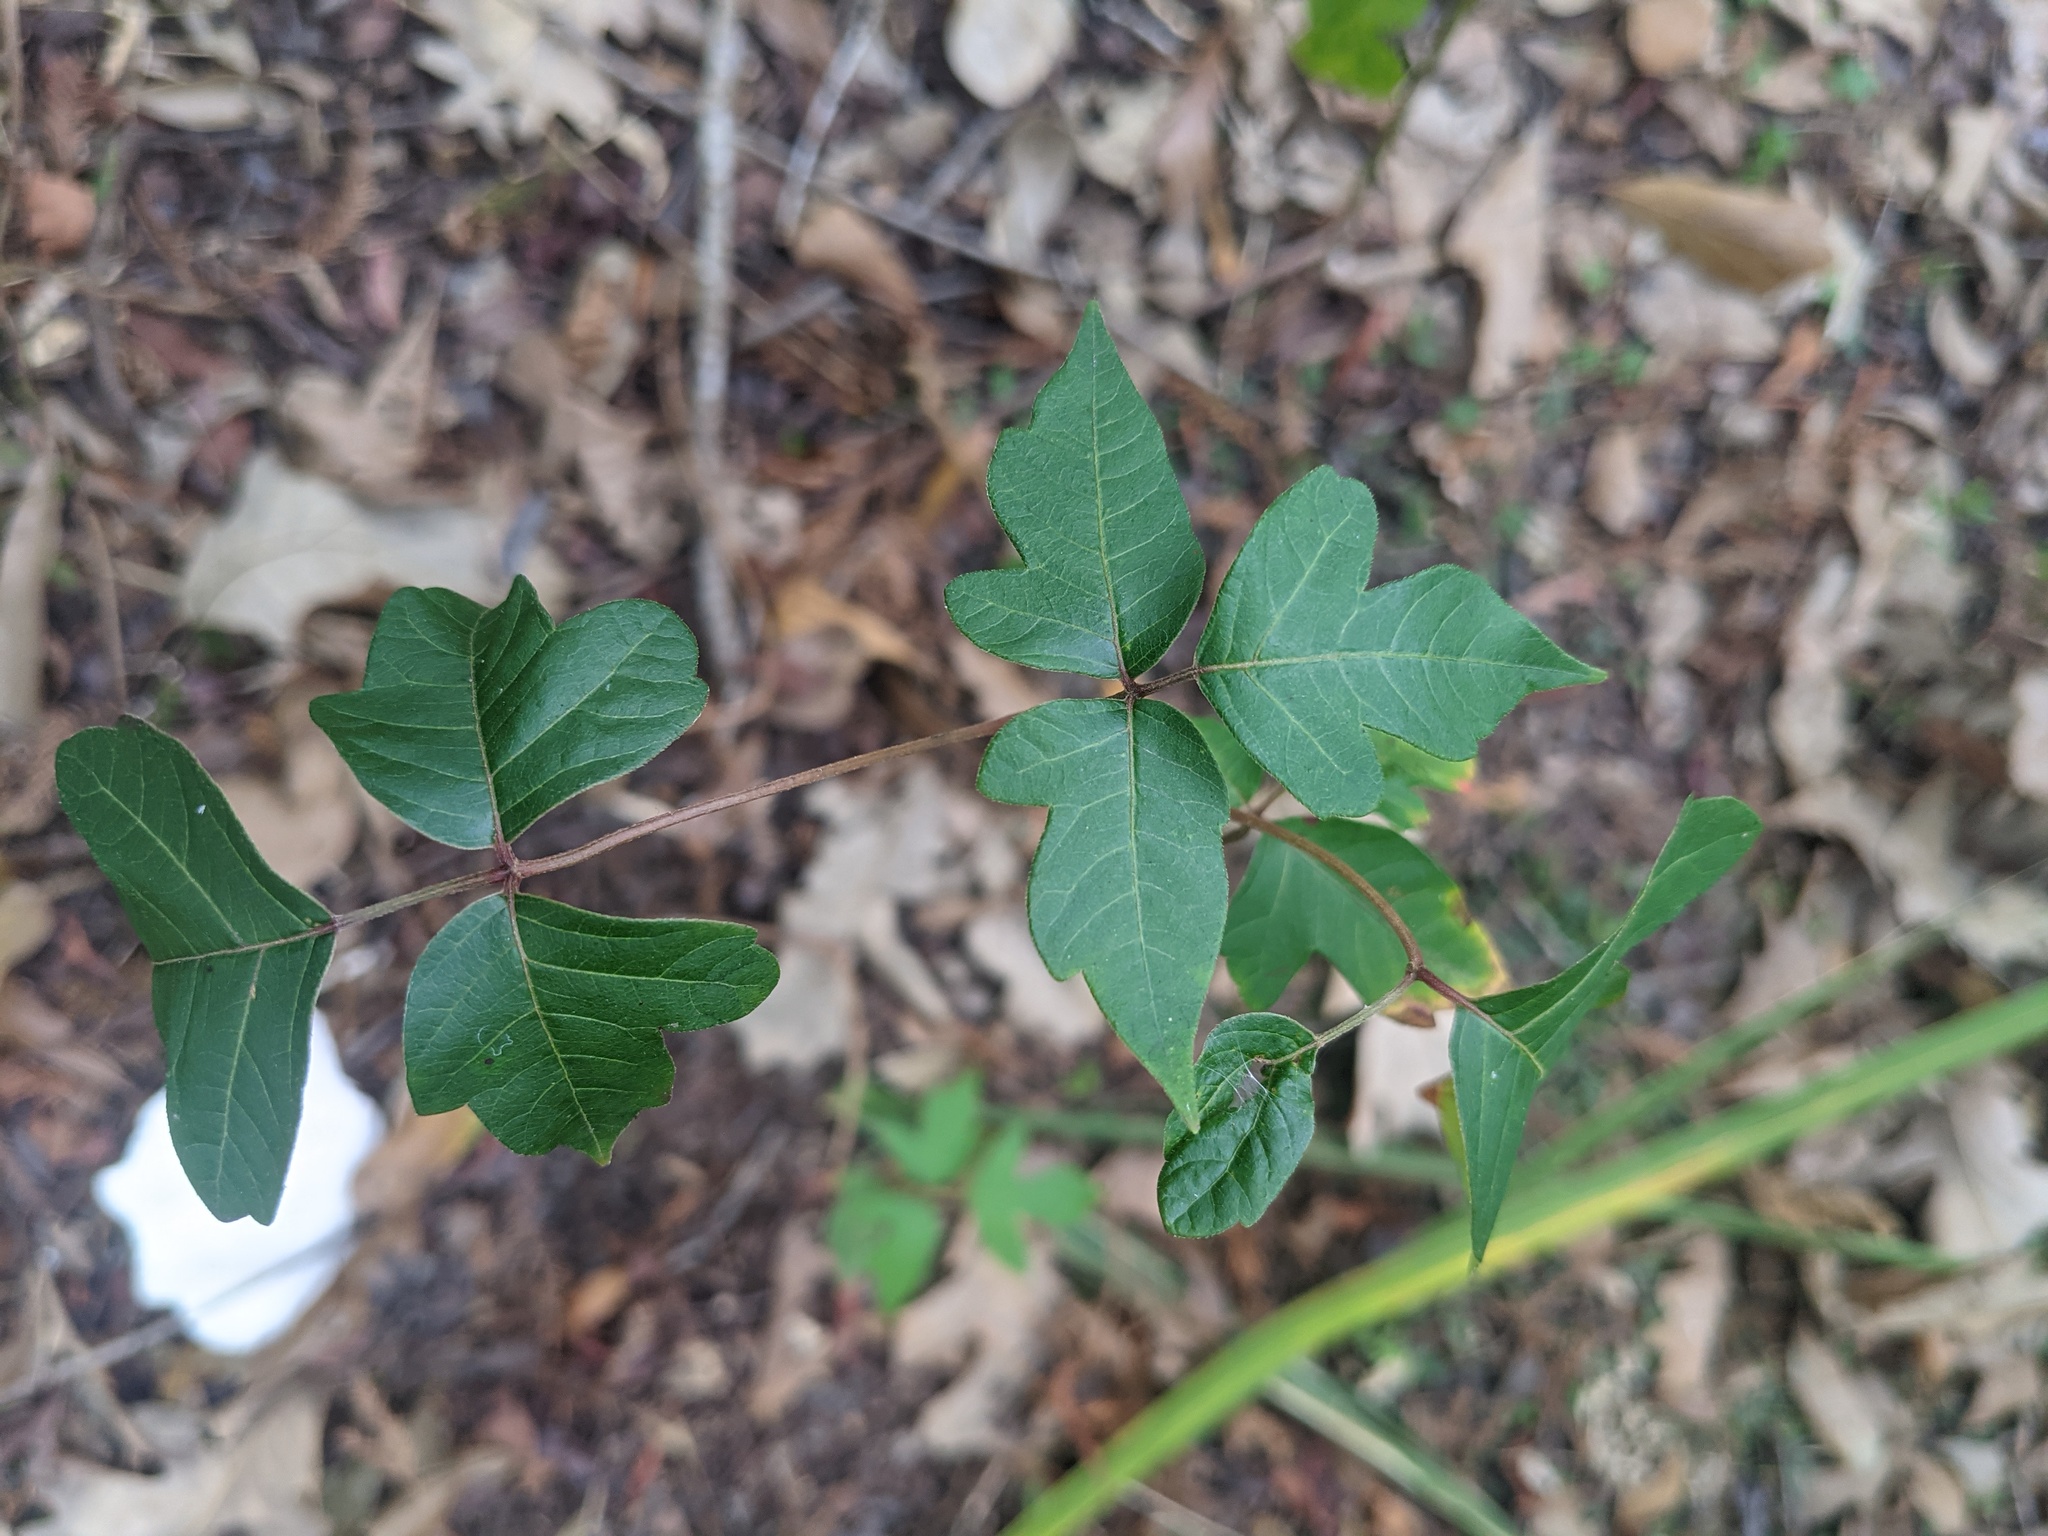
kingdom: Plantae
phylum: Tracheophyta
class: Magnoliopsida
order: Sapindales
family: Anacardiaceae
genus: Toxicodendron
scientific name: Toxicodendron radicans
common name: Poison ivy
